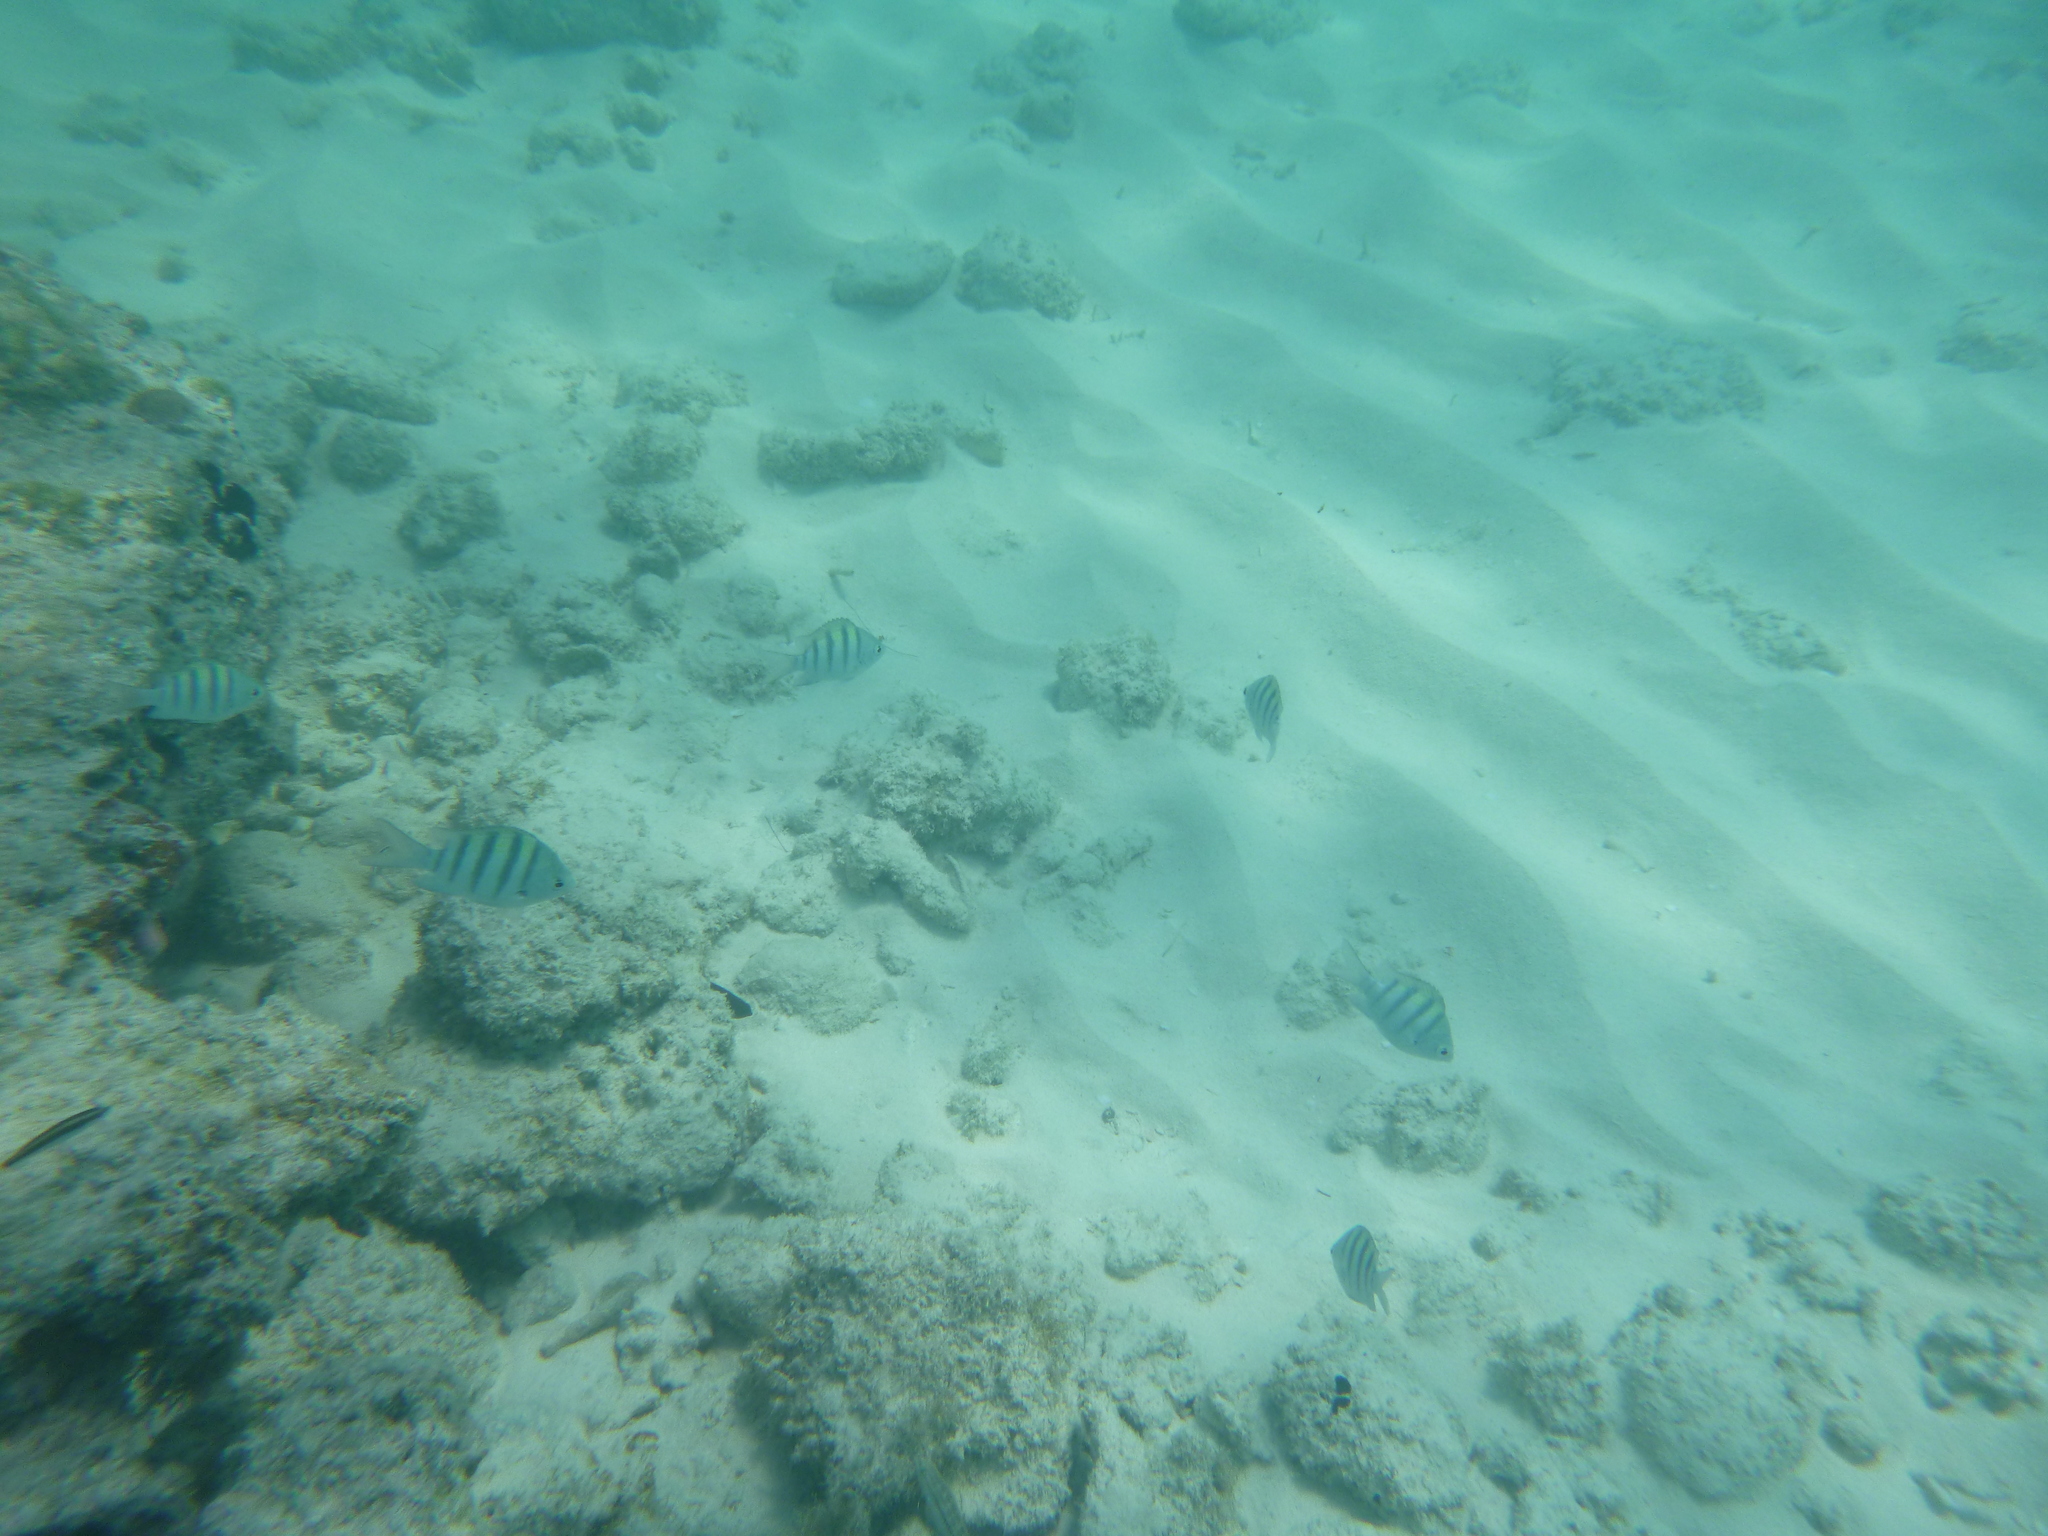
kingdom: Animalia
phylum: Chordata
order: Perciformes
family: Pomacentridae
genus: Abudefduf
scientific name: Abudefduf saxatilis
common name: Sergeant major
